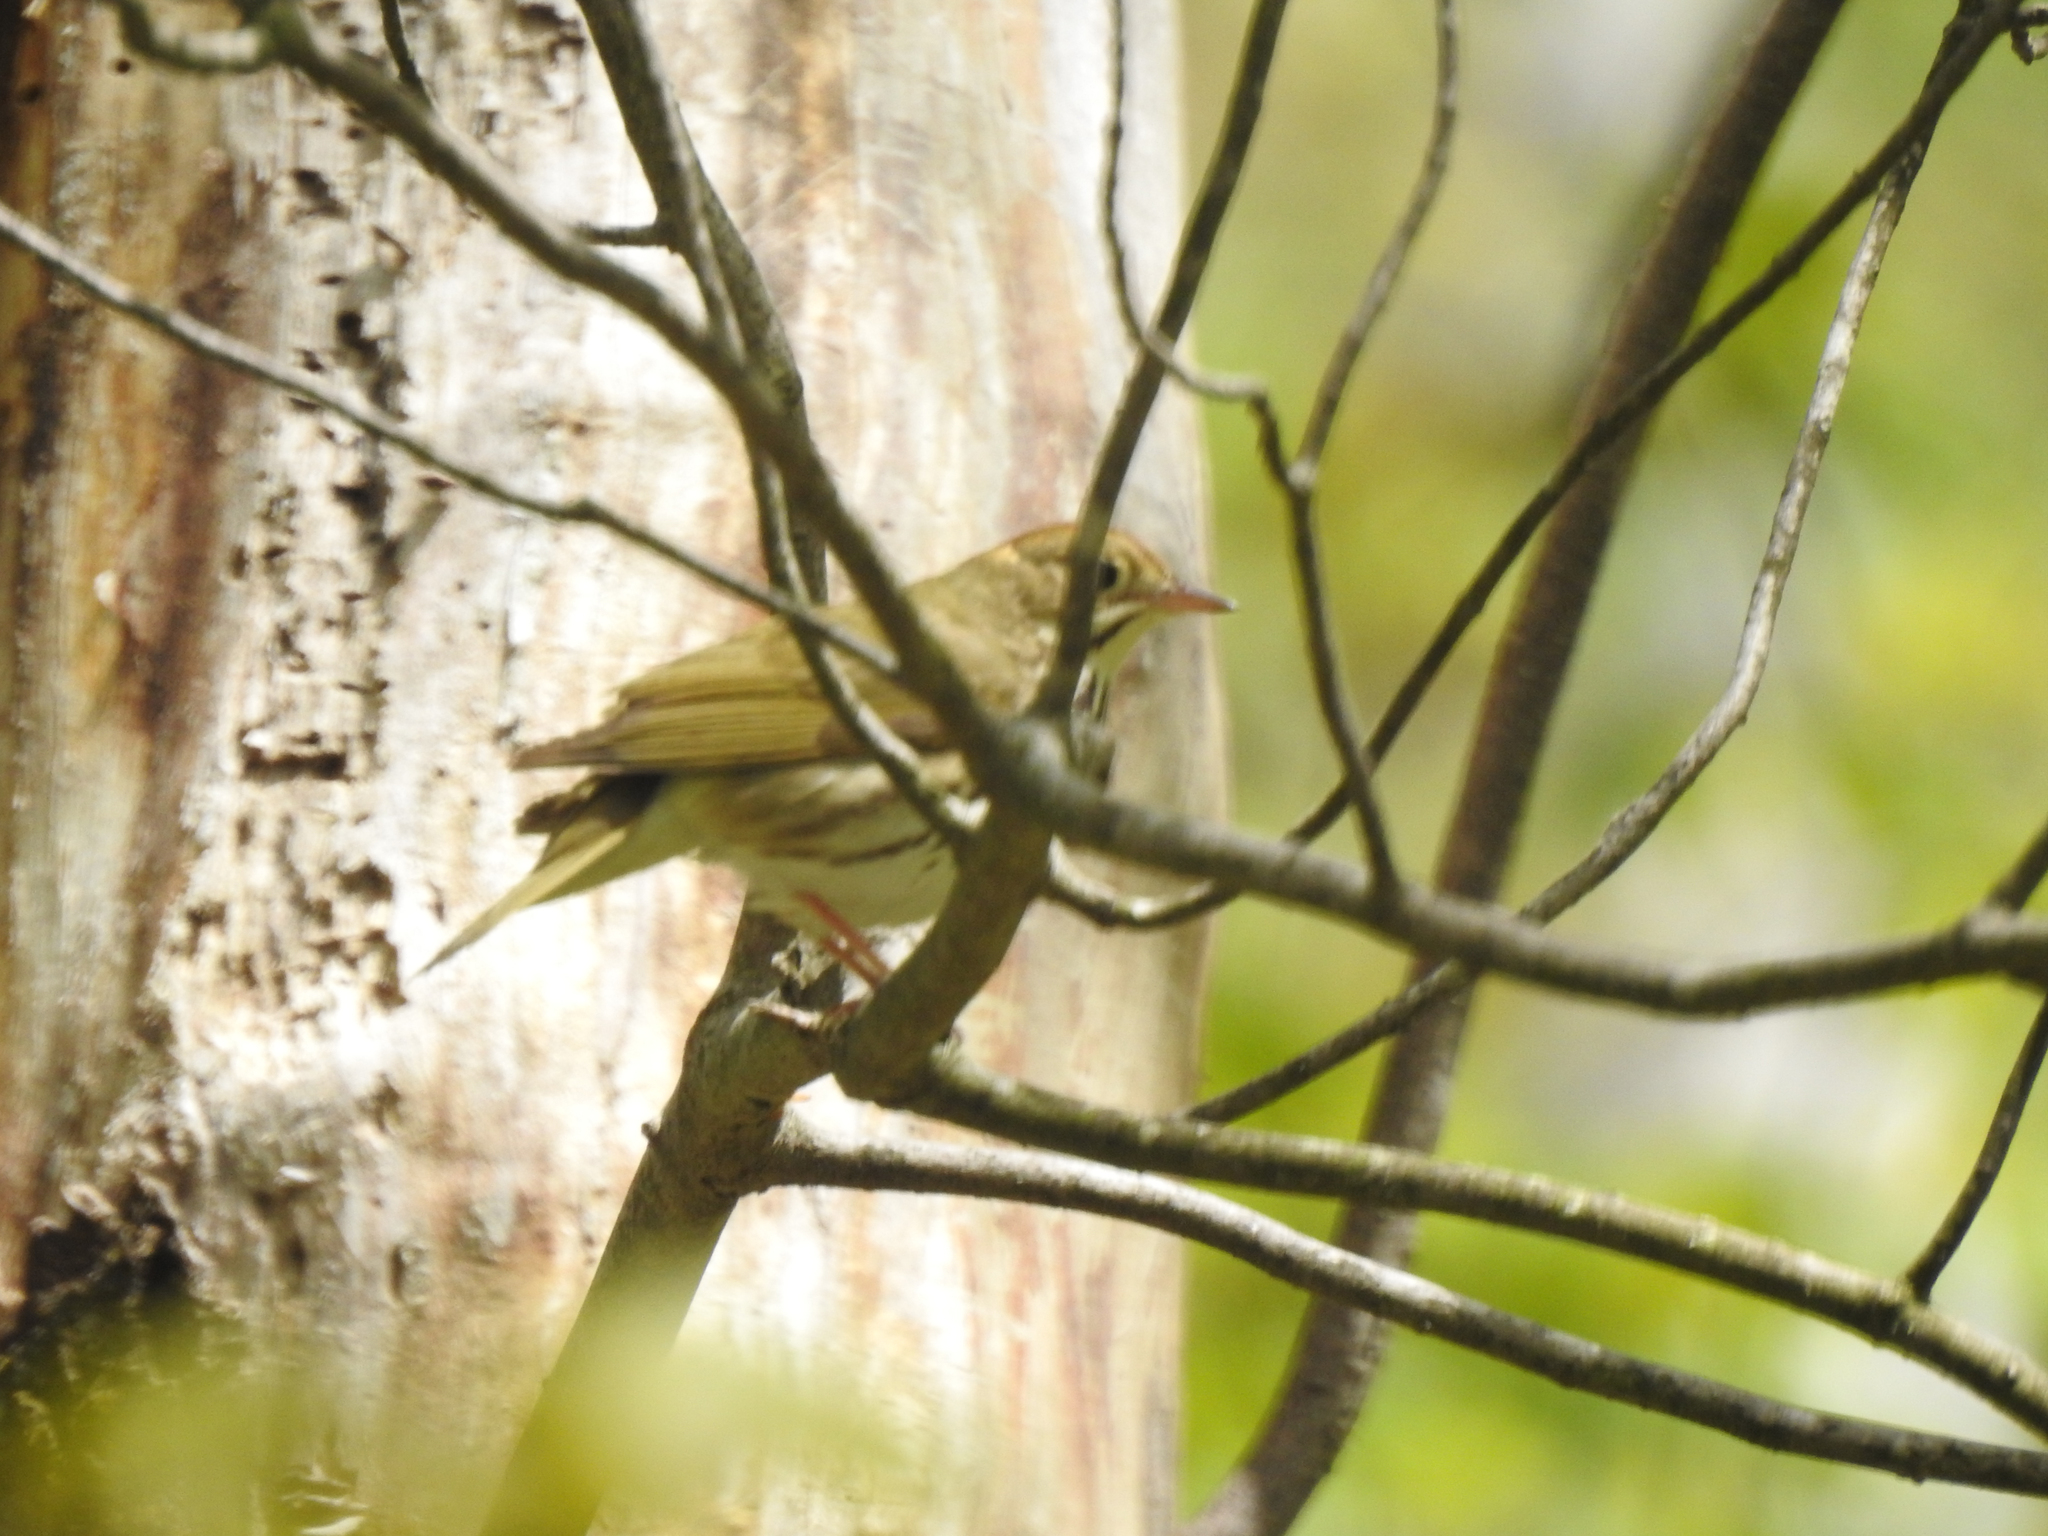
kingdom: Animalia
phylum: Chordata
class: Aves
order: Passeriformes
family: Parulidae
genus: Seiurus
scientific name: Seiurus aurocapilla
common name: Ovenbird
